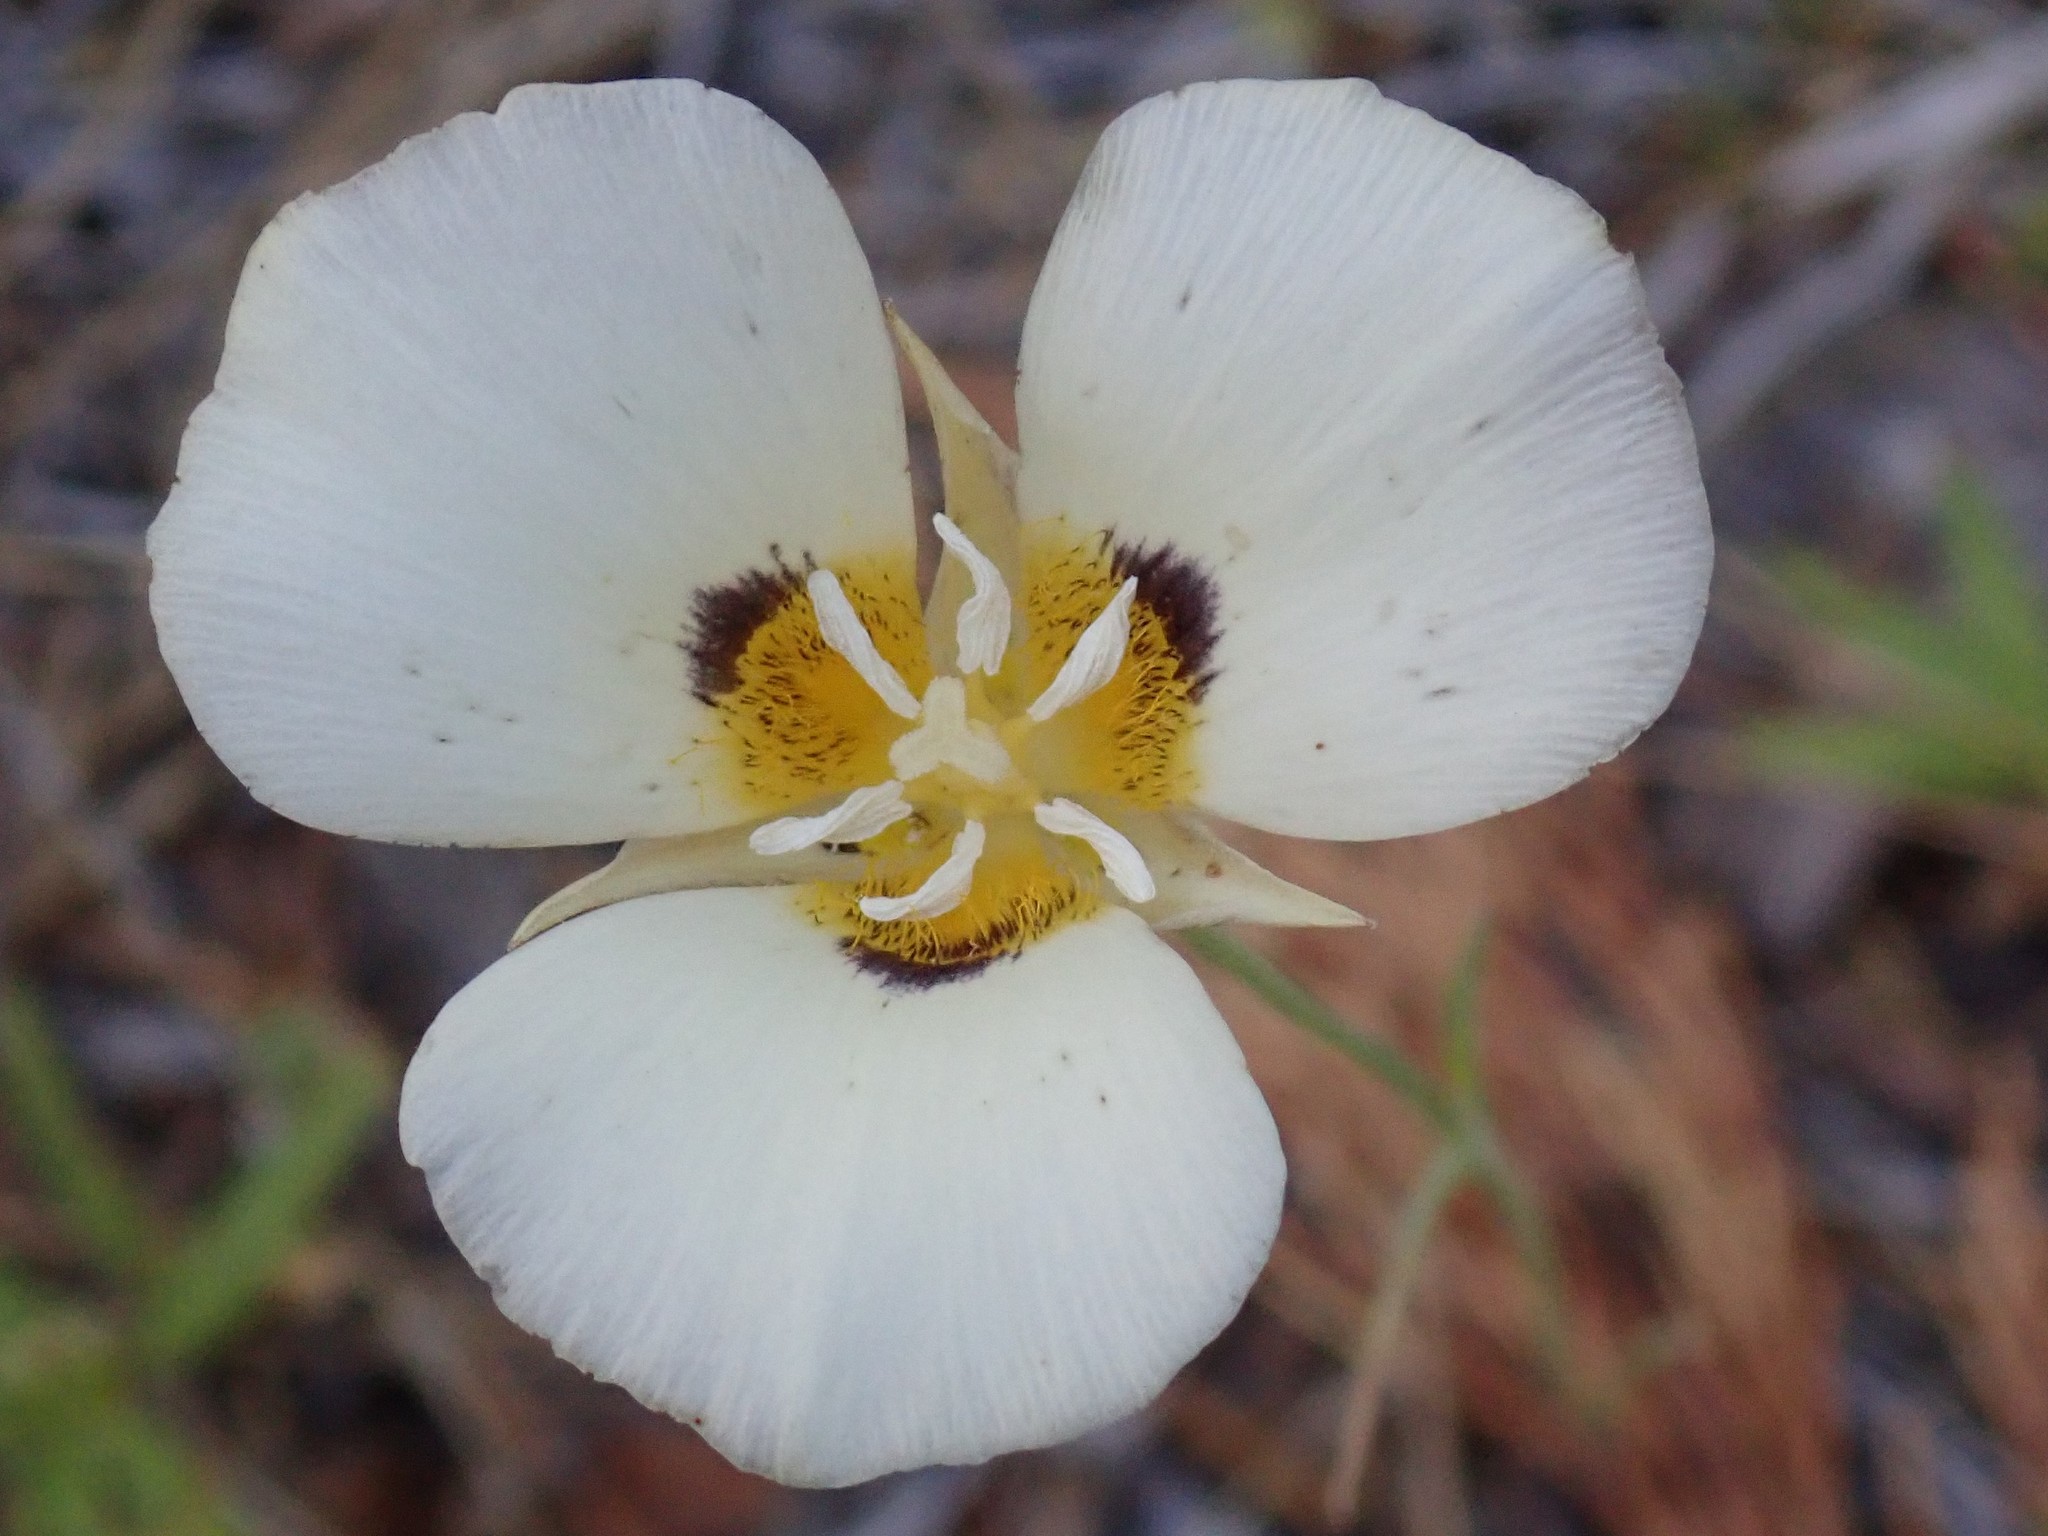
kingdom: Plantae
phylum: Tracheophyta
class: Liliopsida
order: Liliales
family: Liliaceae
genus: Calochortus
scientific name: Calochortus leichtlinii
